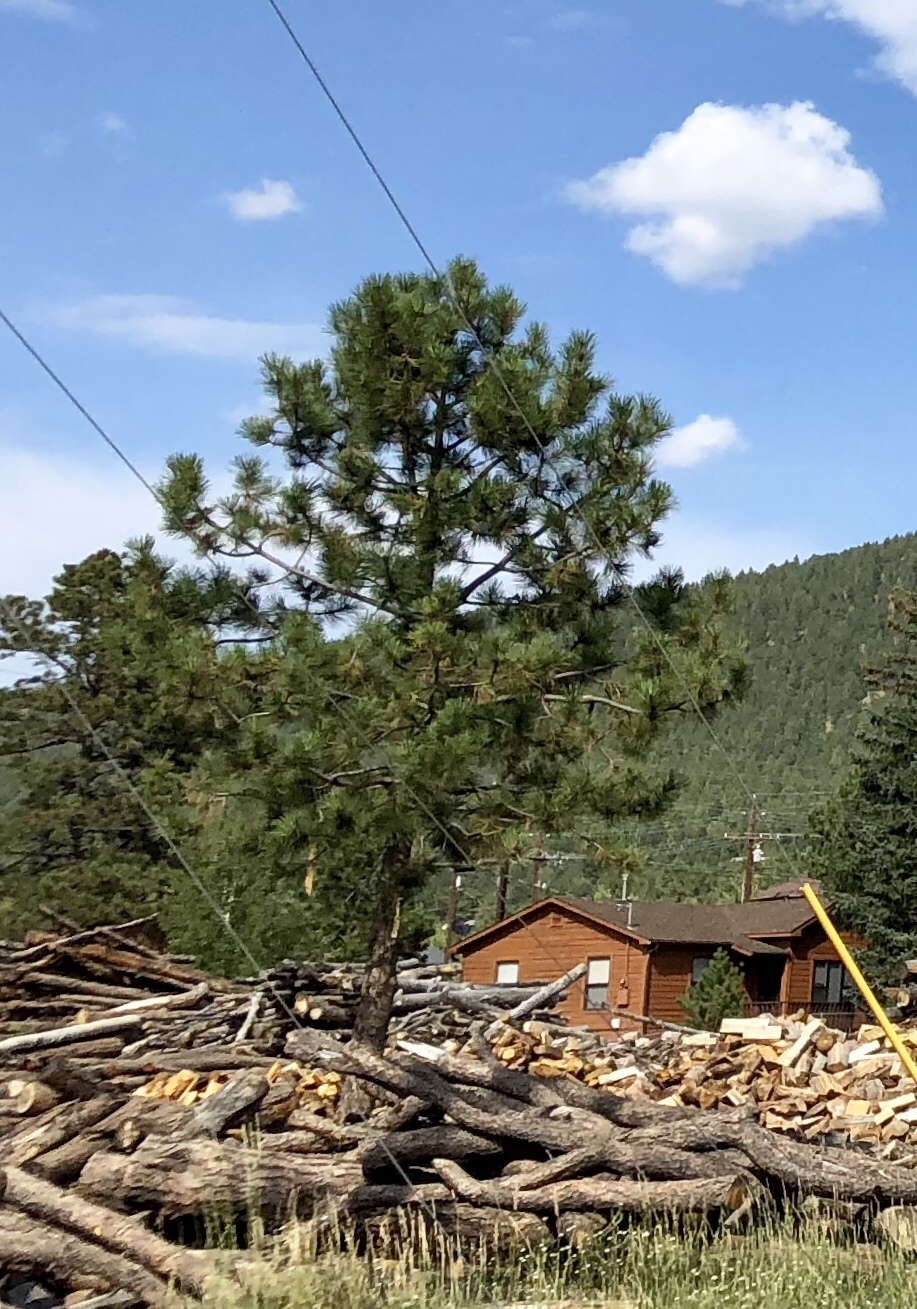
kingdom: Plantae
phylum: Tracheophyta
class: Pinopsida
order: Pinales
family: Pinaceae
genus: Pinus
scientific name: Pinus ponderosa
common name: Western yellow-pine
